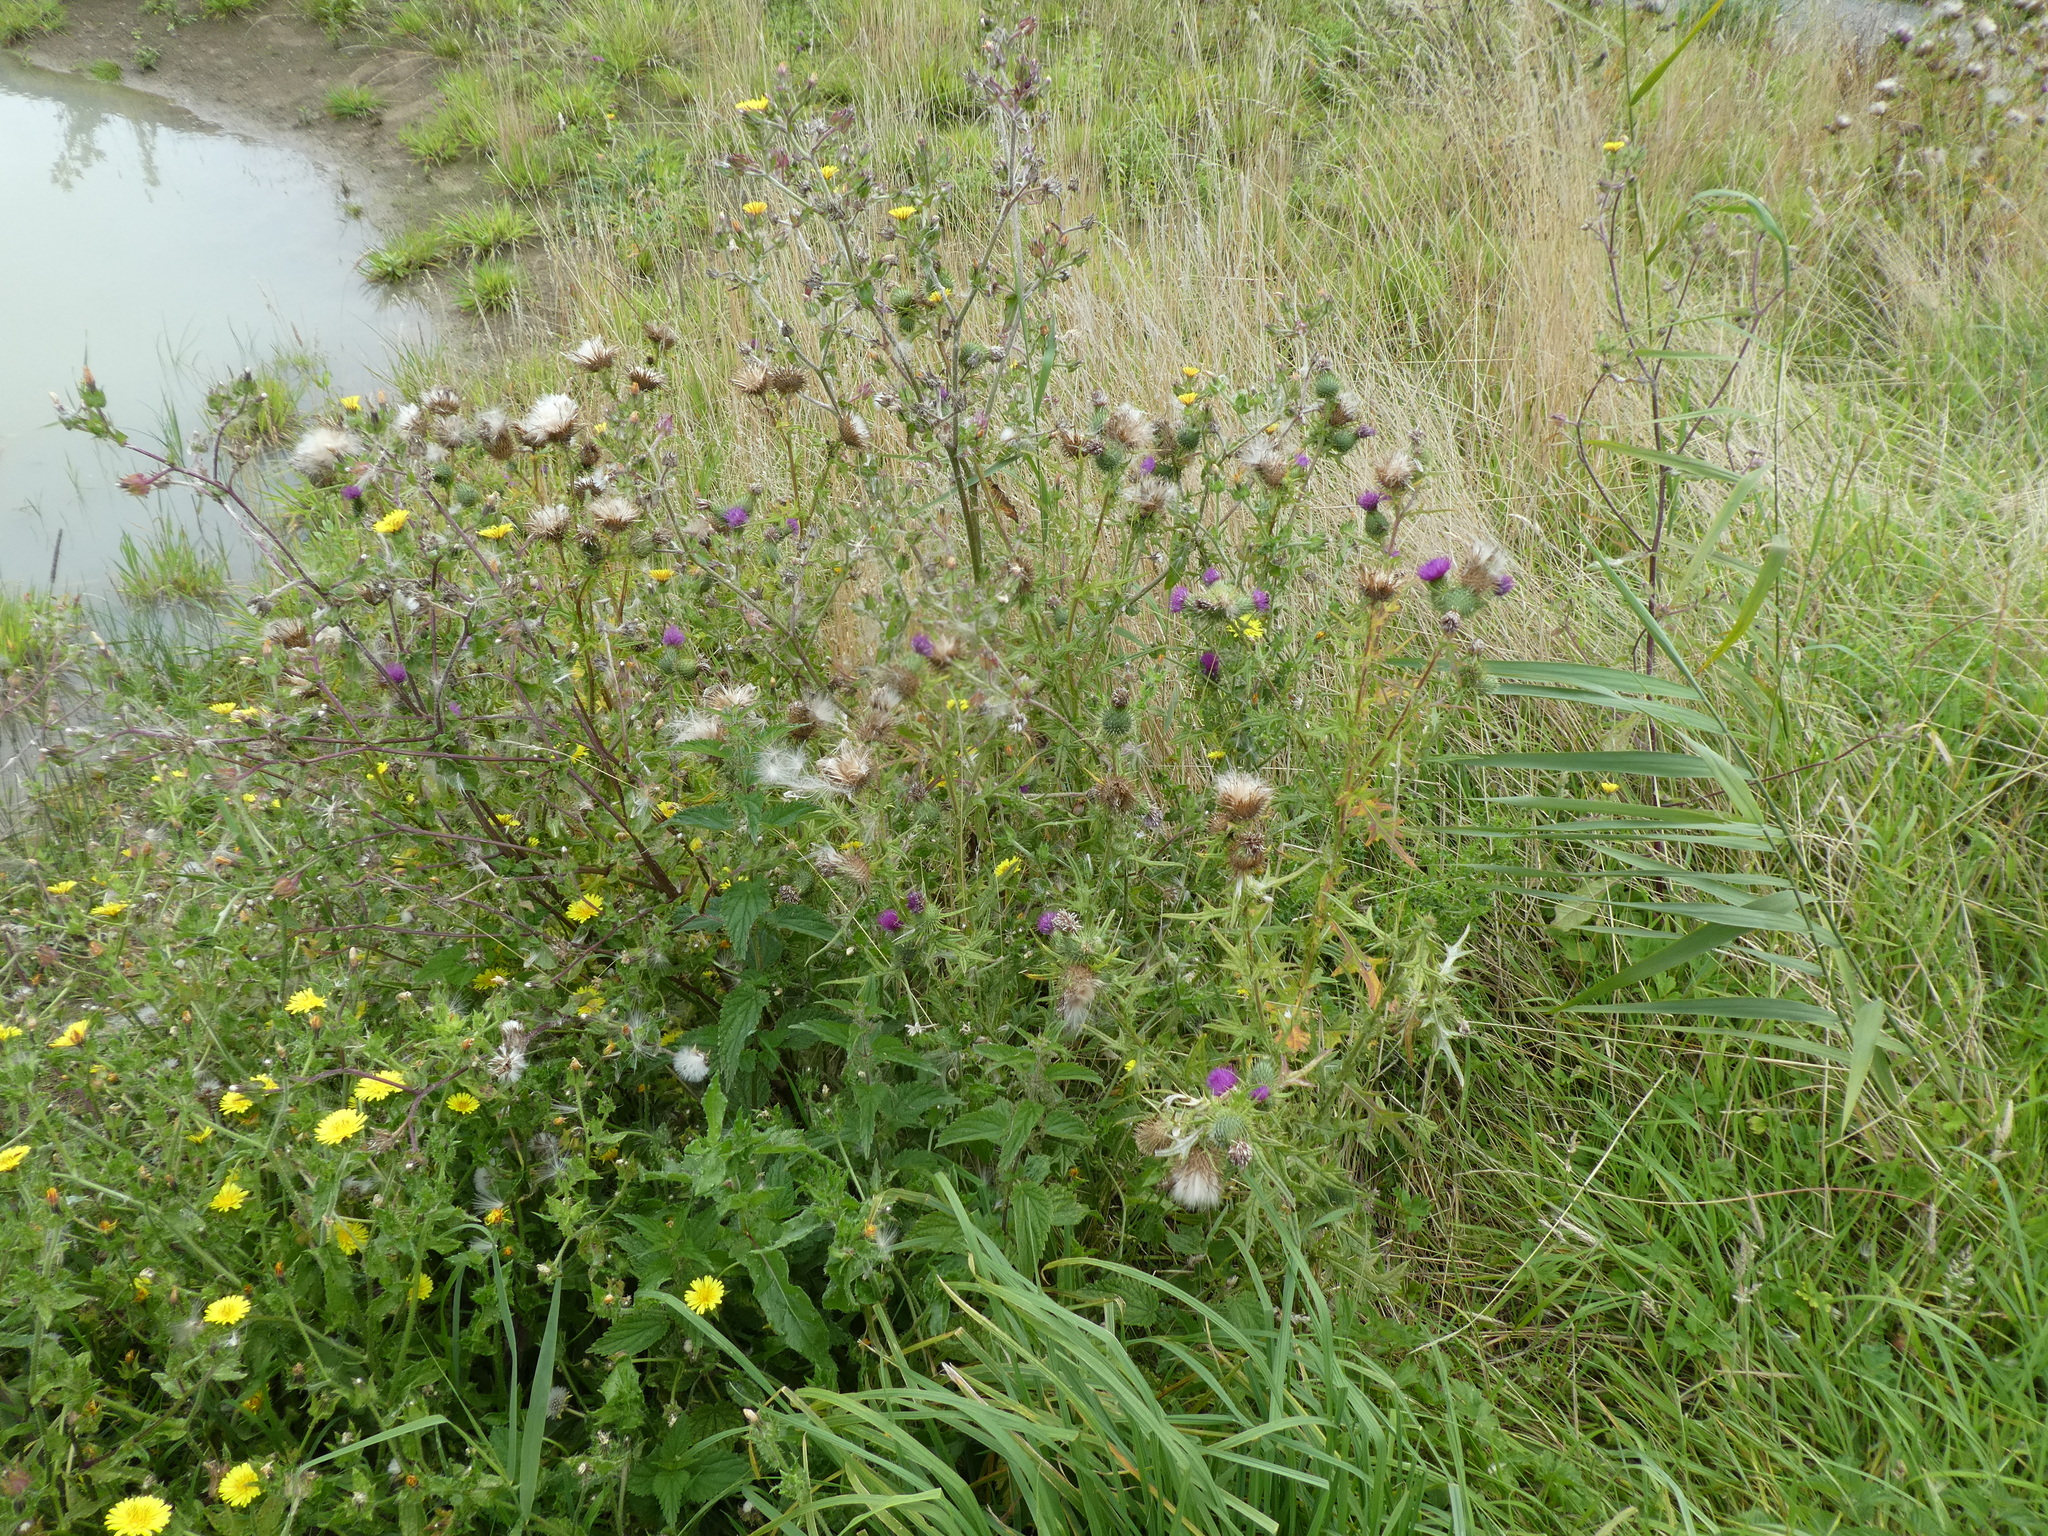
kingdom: Plantae
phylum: Tracheophyta
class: Magnoliopsida
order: Asterales
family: Asteraceae
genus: Cirsium
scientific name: Cirsium vulgare
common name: Bull thistle
